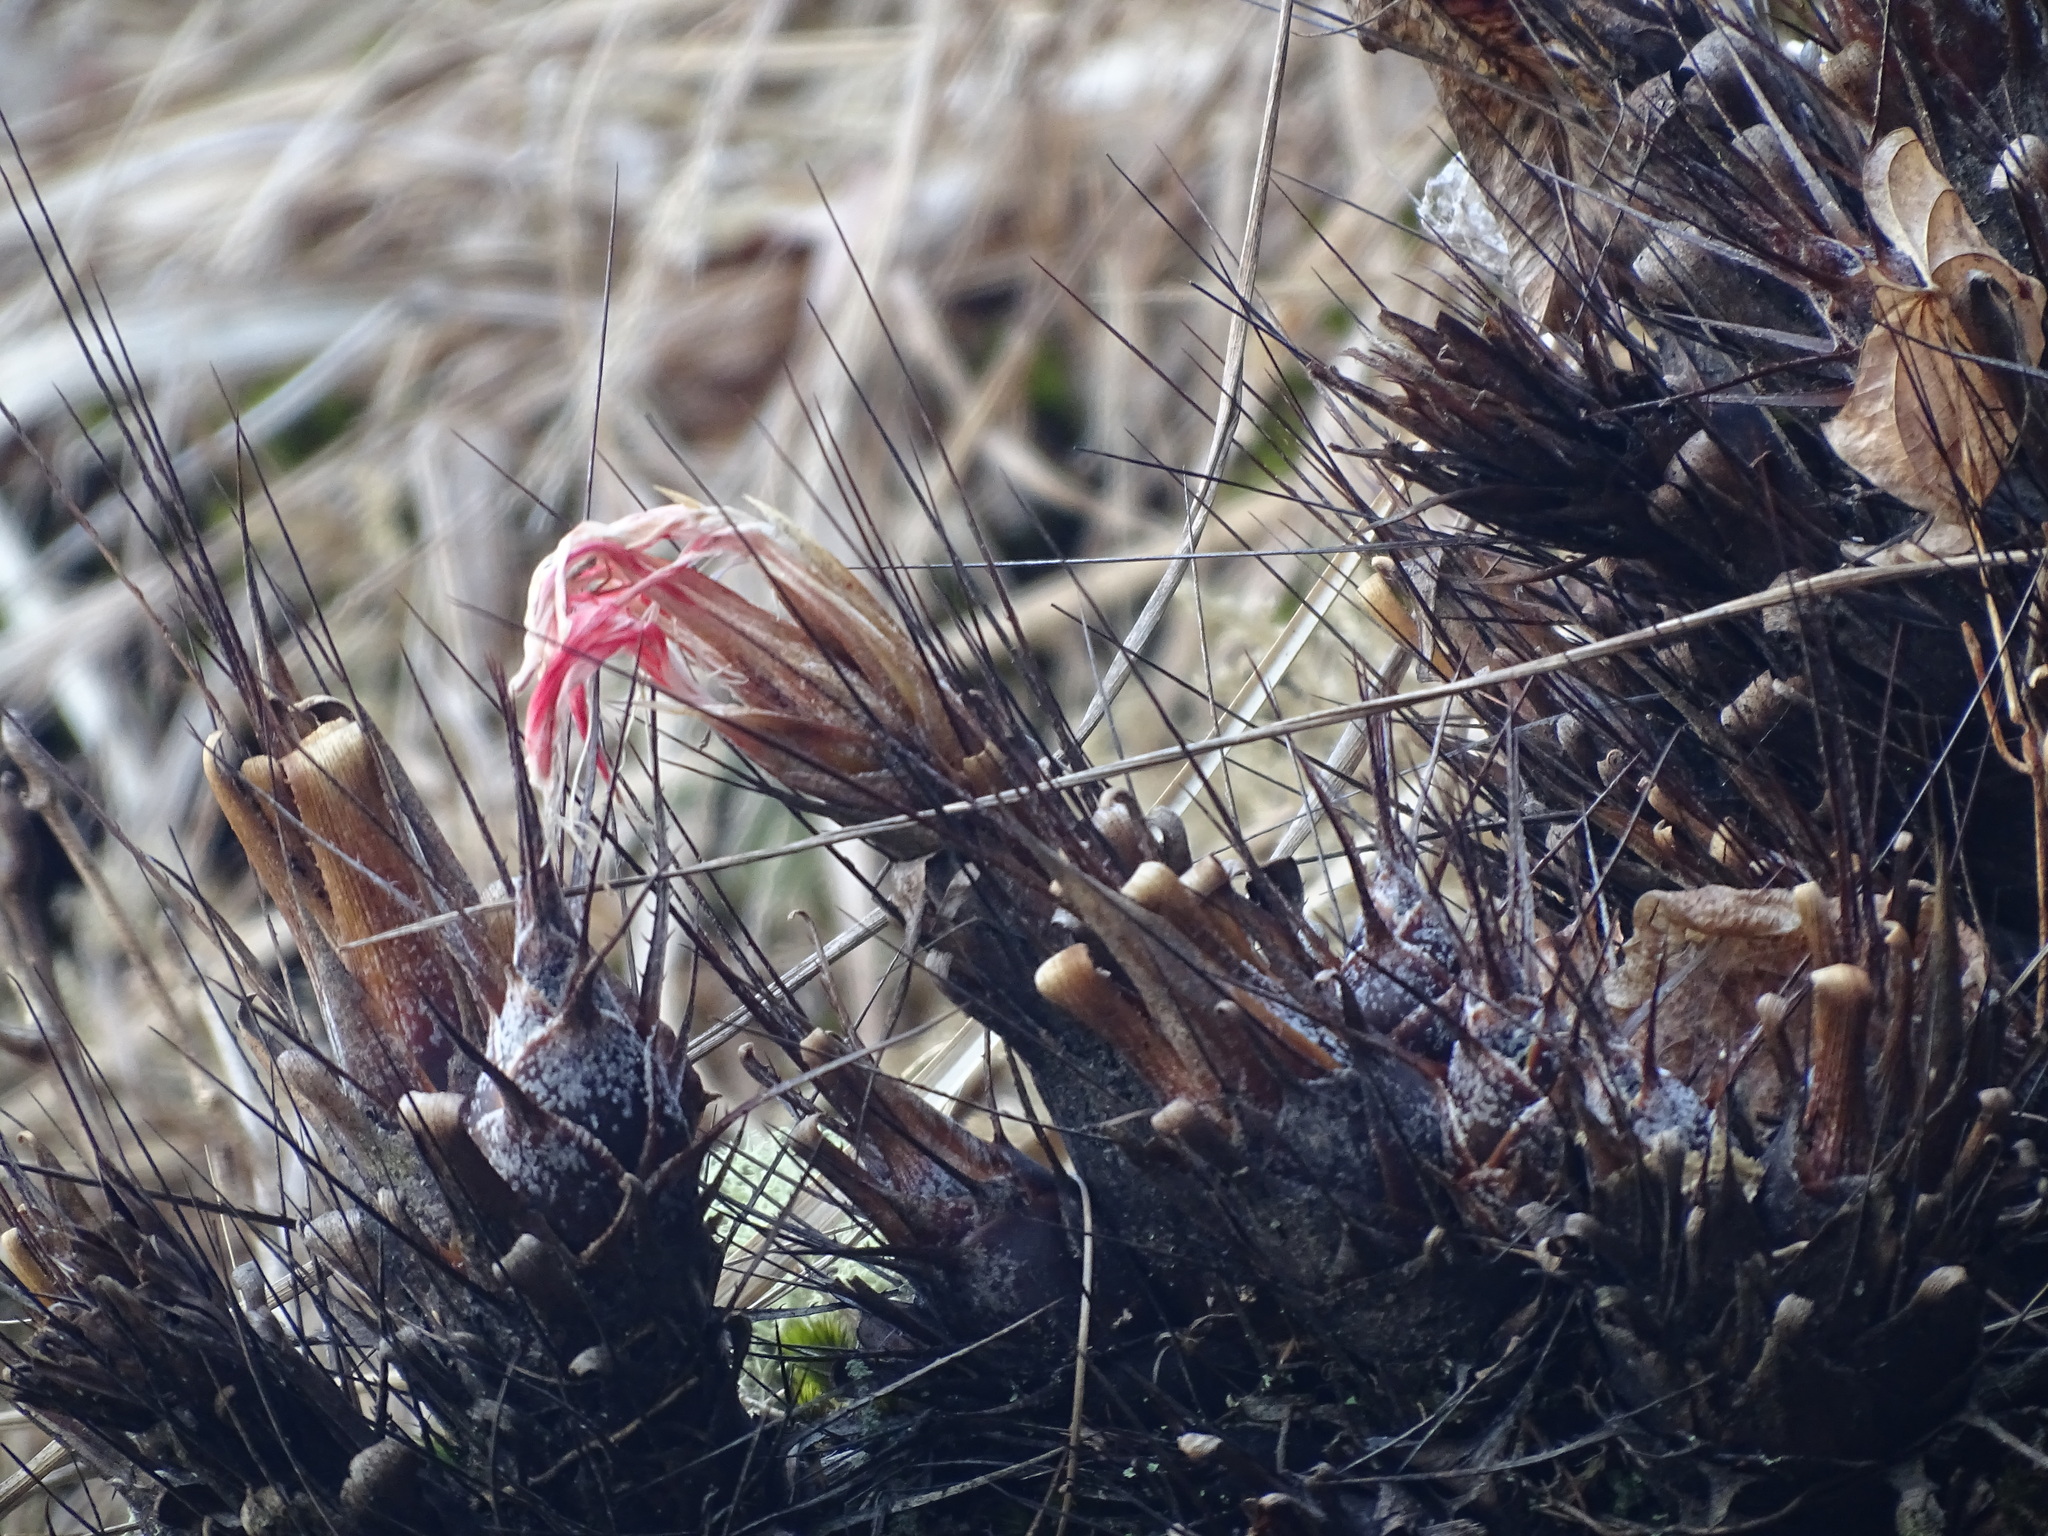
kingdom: Plantae
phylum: Tracheophyta
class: Liliopsida
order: Poales
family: Bromeliaceae
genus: Pitcairnia
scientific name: Pitcairnia heterophylla
